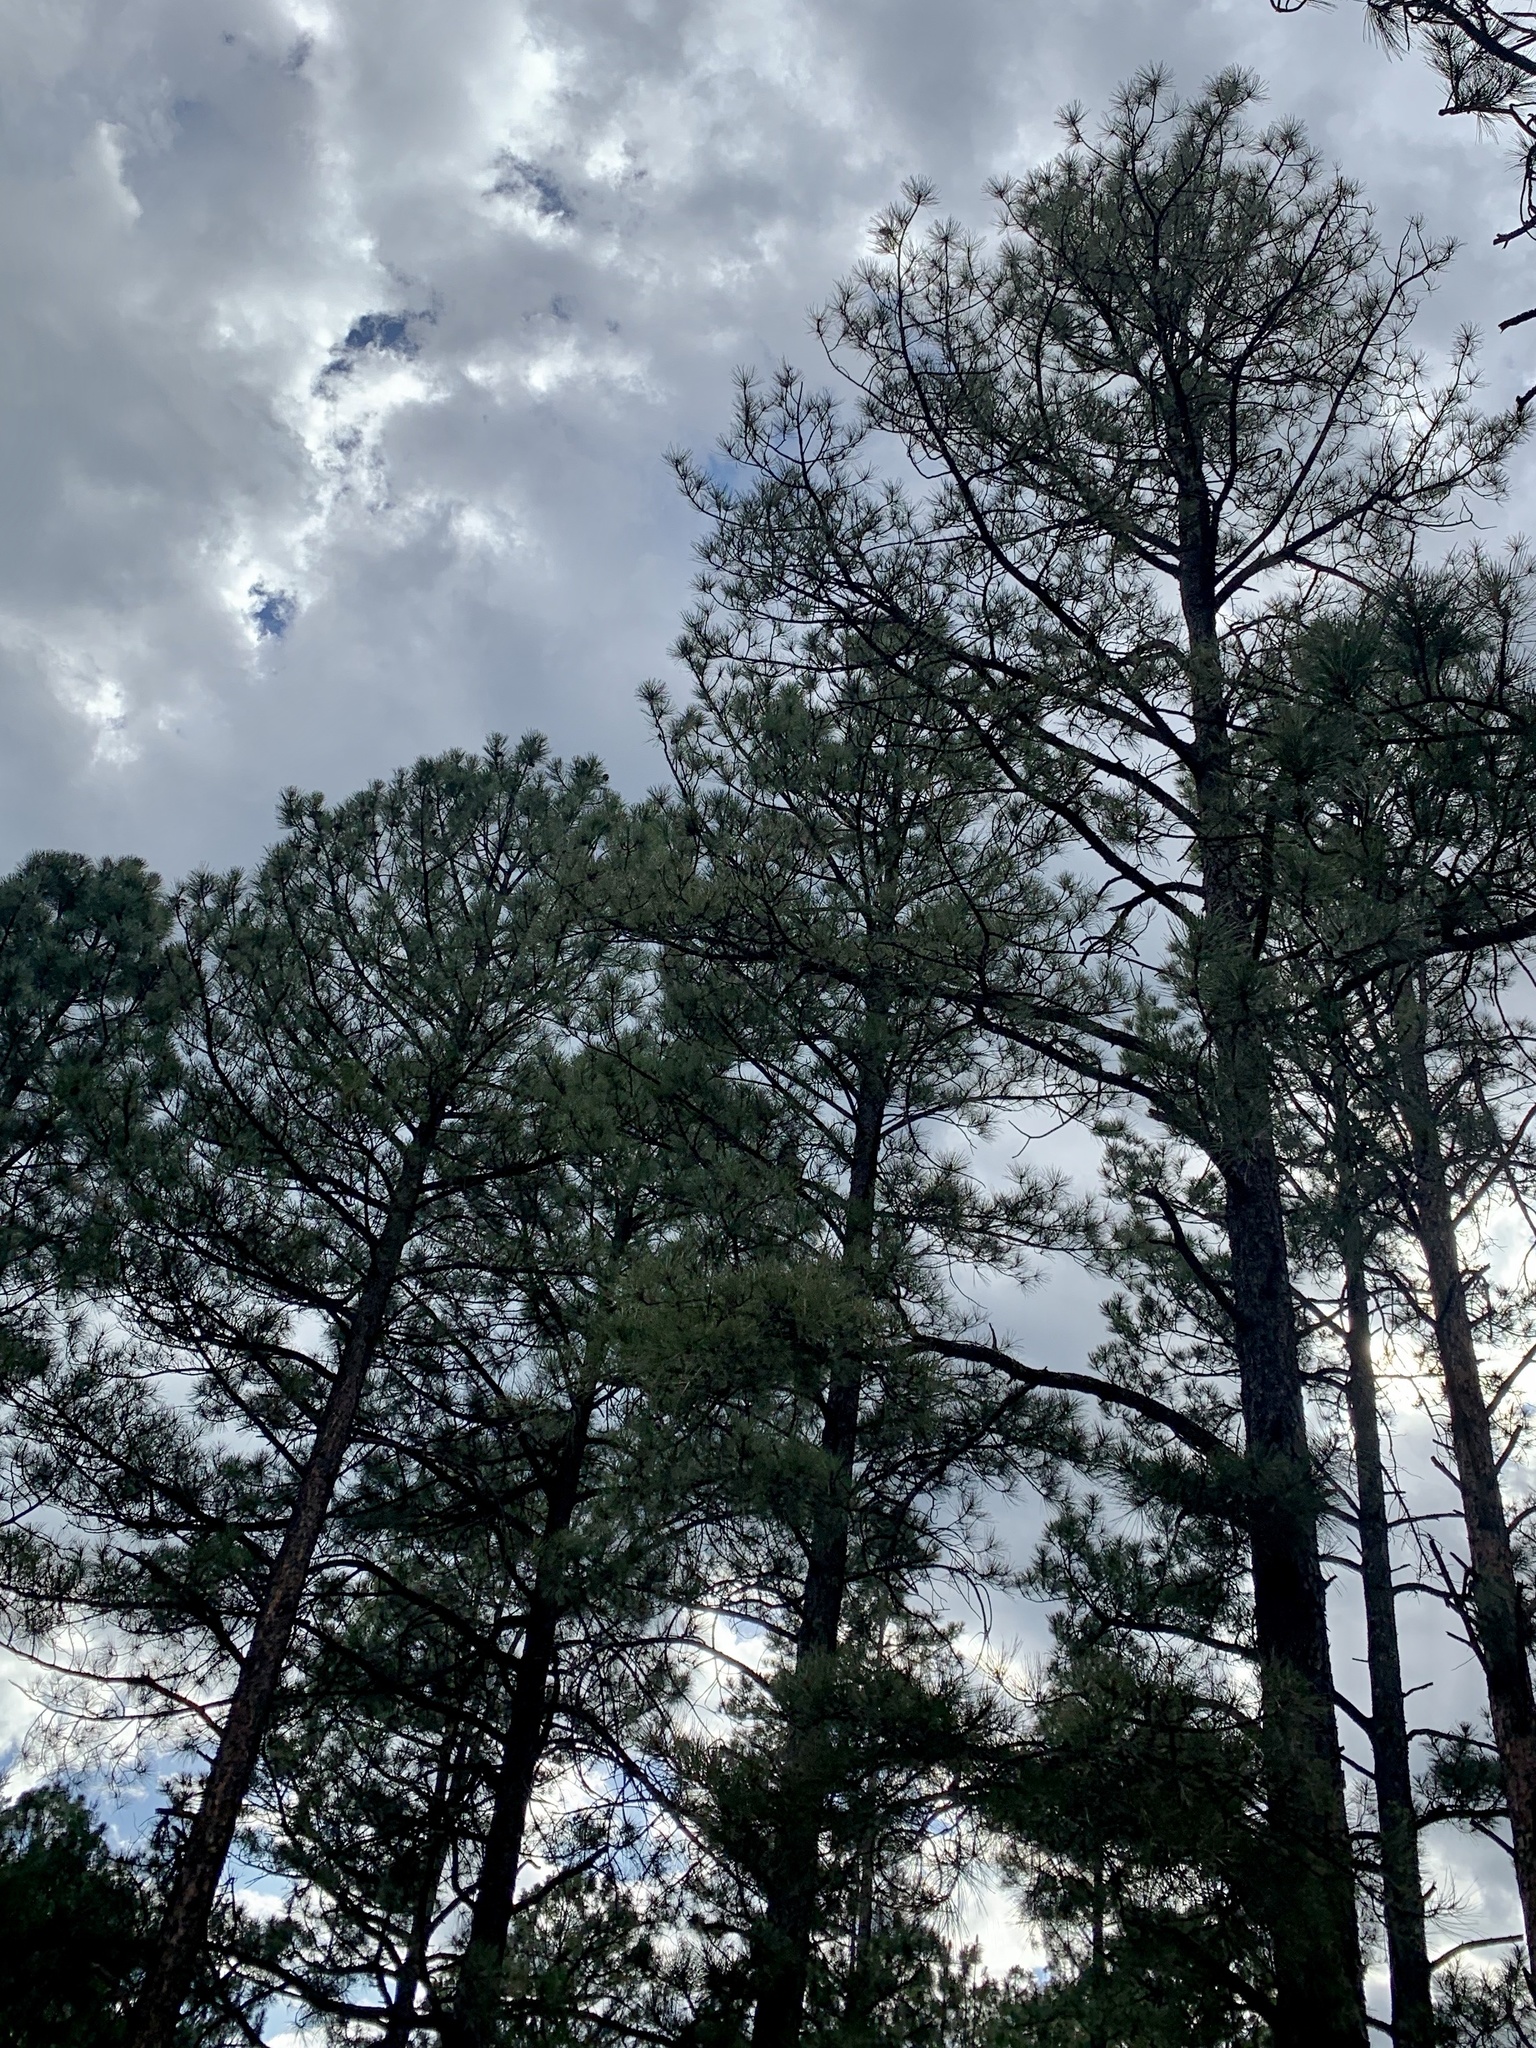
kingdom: Plantae
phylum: Tracheophyta
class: Pinopsida
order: Pinales
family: Pinaceae
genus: Pinus
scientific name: Pinus ponderosa
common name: Western yellow-pine
